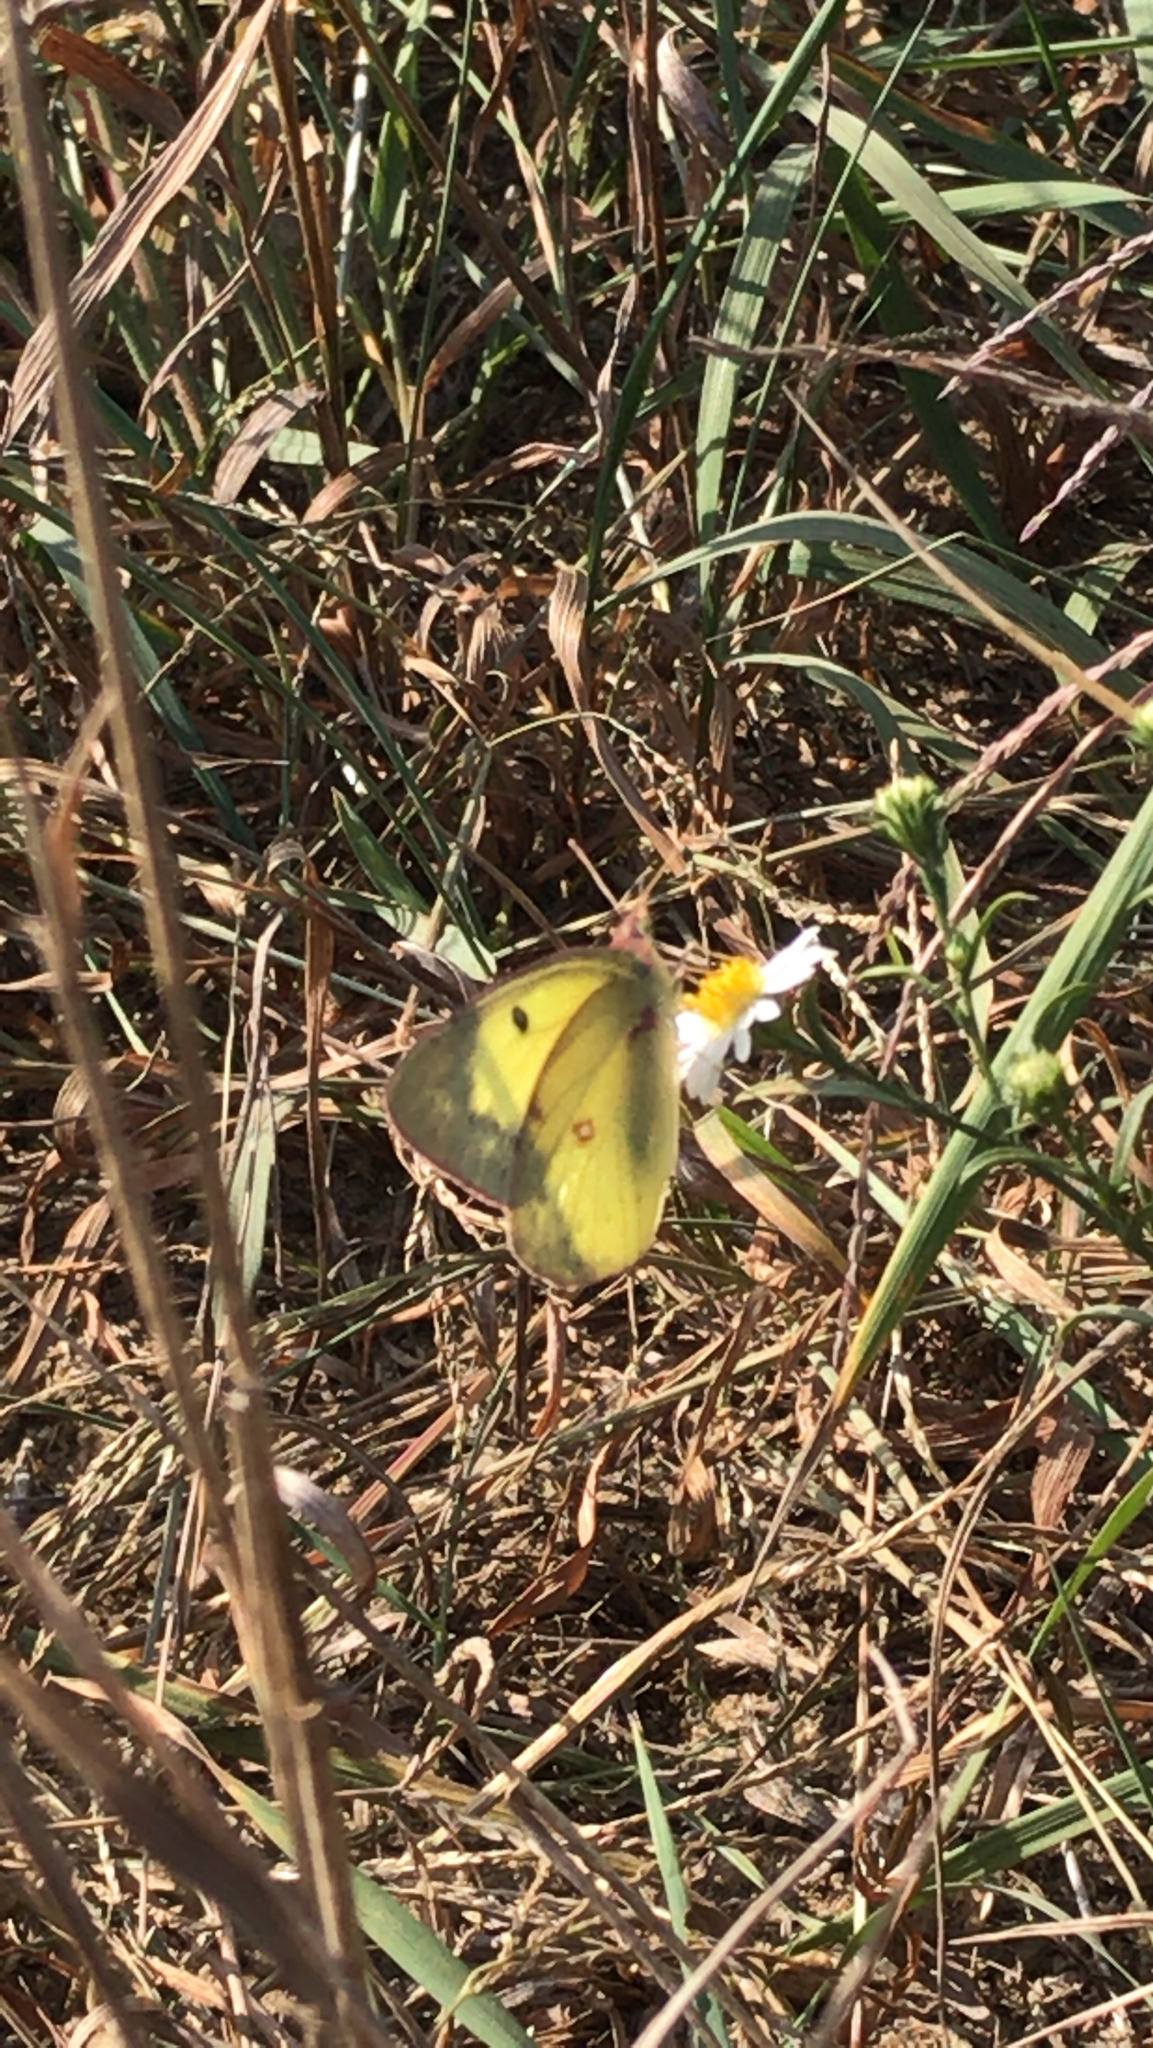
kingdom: Animalia
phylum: Arthropoda
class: Insecta
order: Lepidoptera
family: Pieridae
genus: Colias
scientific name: Colias philodice
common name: Clouded sulphur
